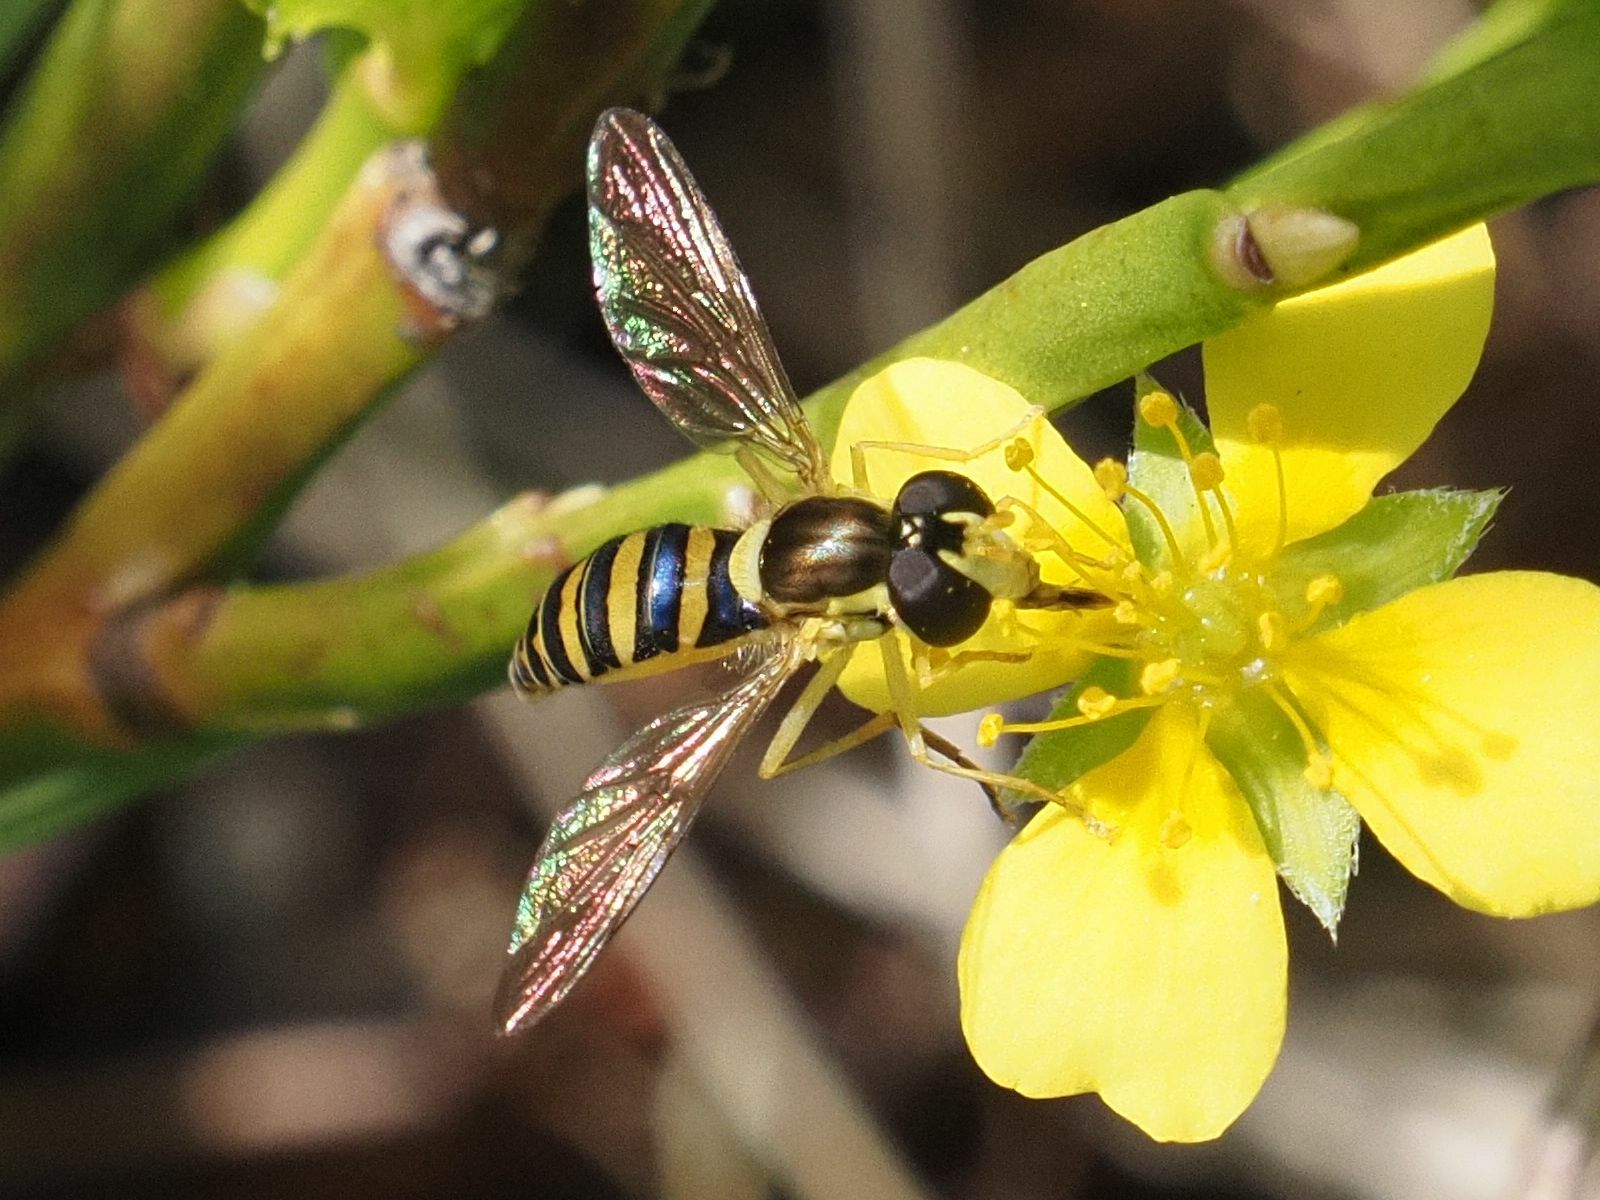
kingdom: Animalia
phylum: Arthropoda
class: Insecta
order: Diptera
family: Syrphidae
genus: Sphaerophoria
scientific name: Sphaerophoria
